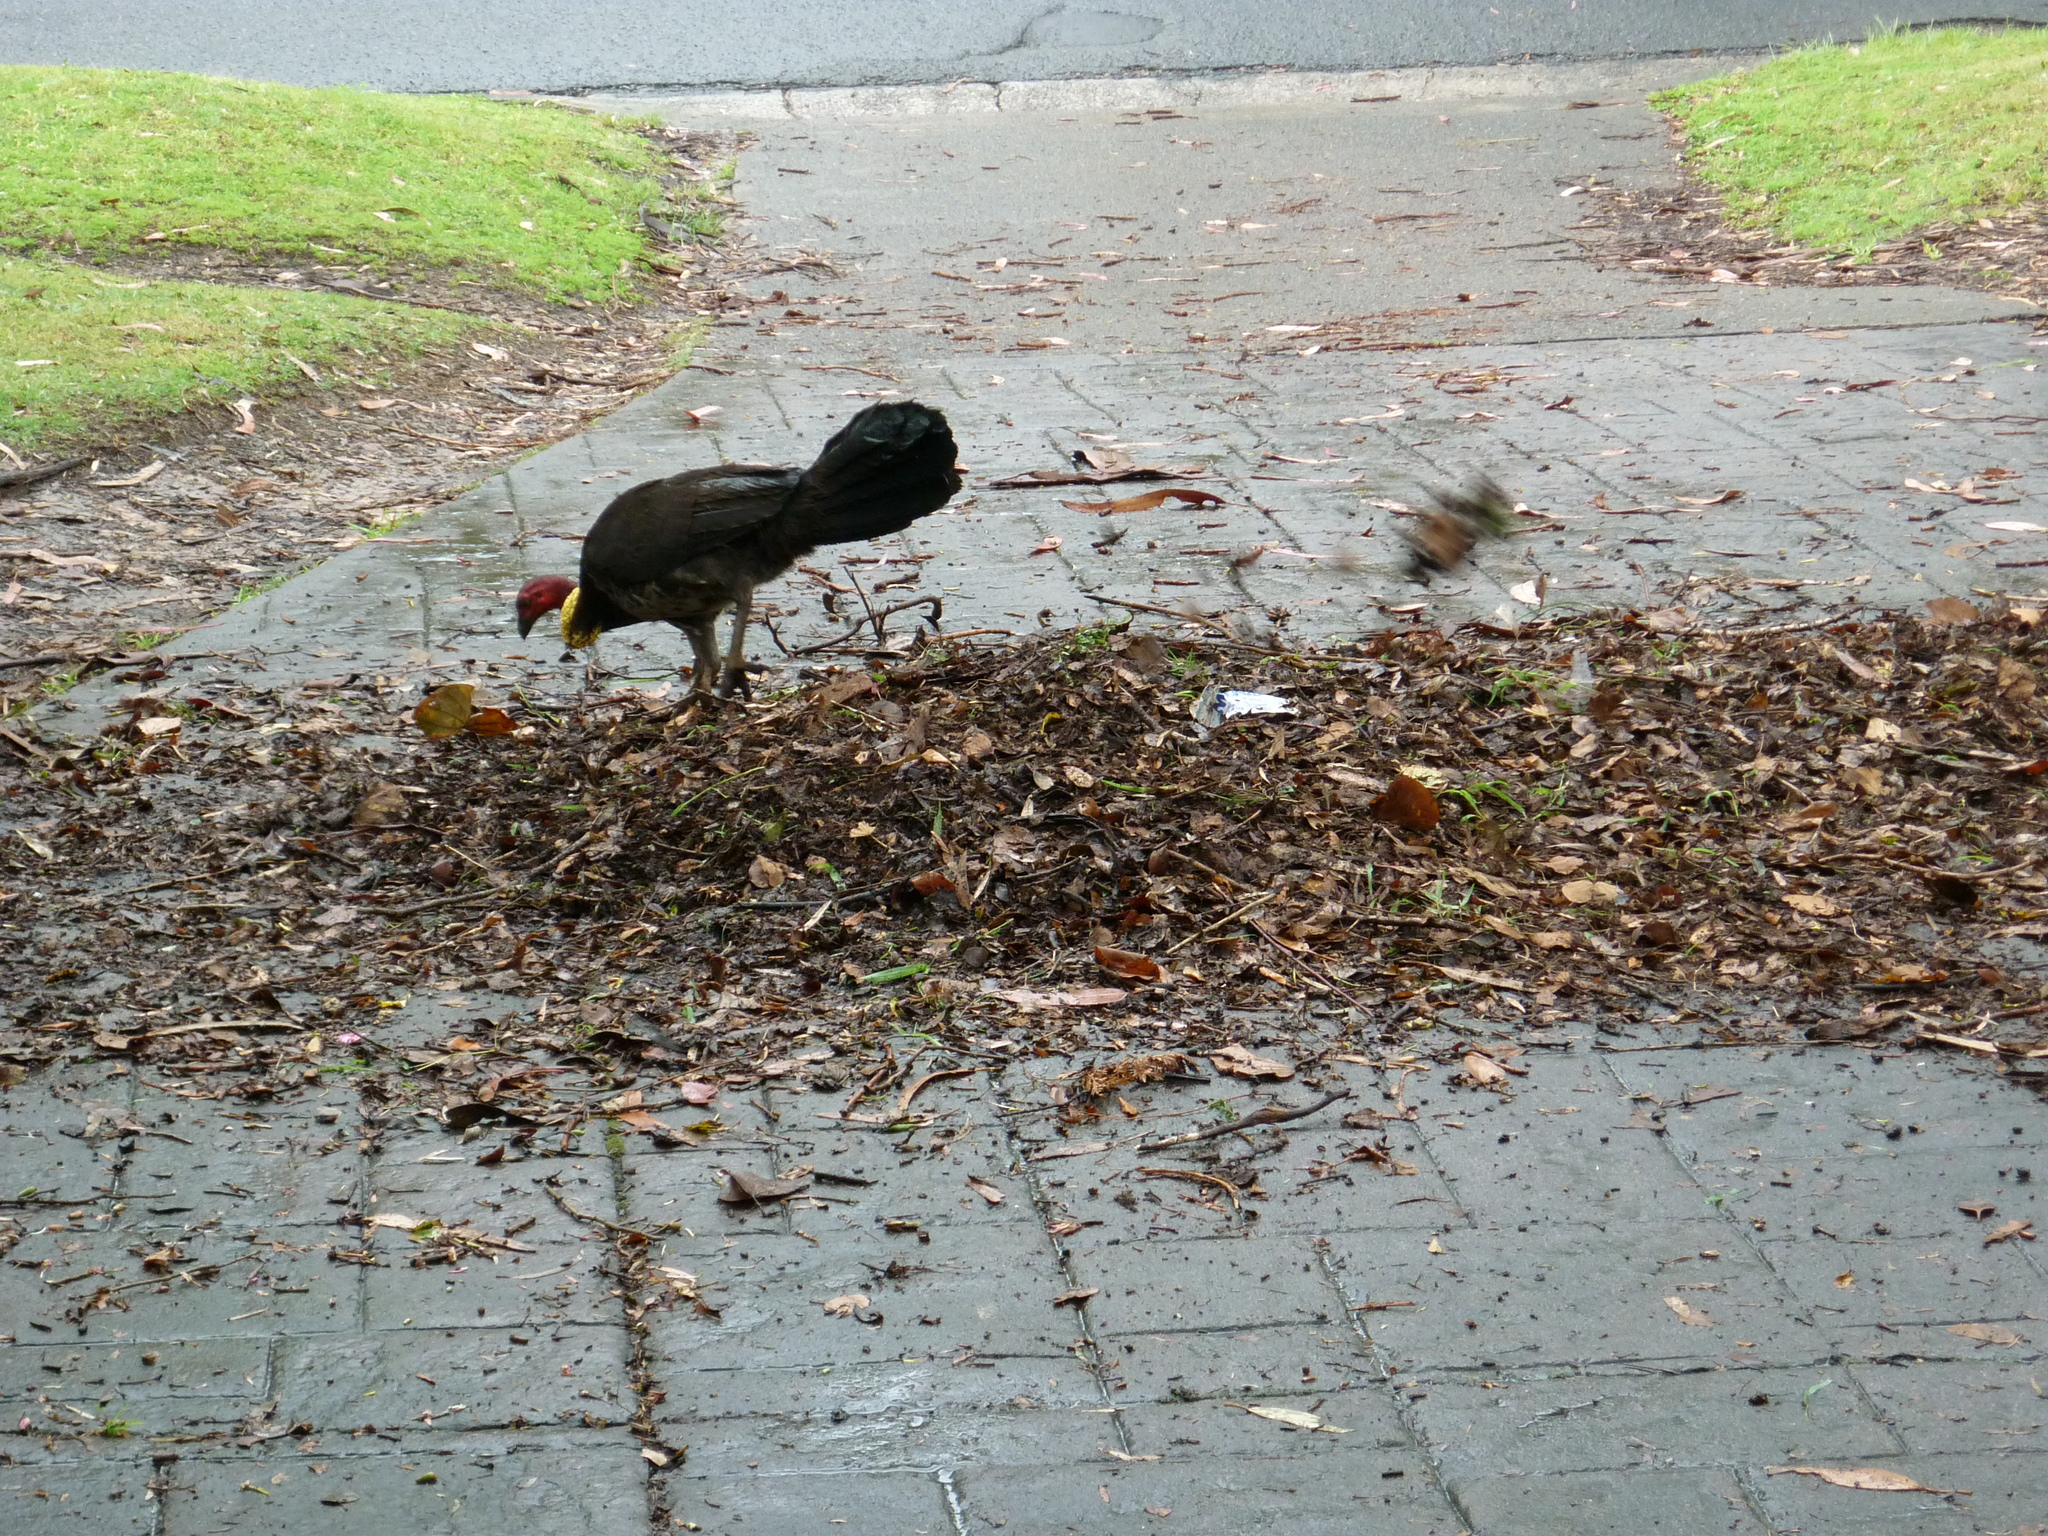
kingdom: Animalia
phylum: Chordata
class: Aves
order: Galliformes
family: Megapodiidae
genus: Alectura
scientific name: Alectura lathami
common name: Australian brushturkey
